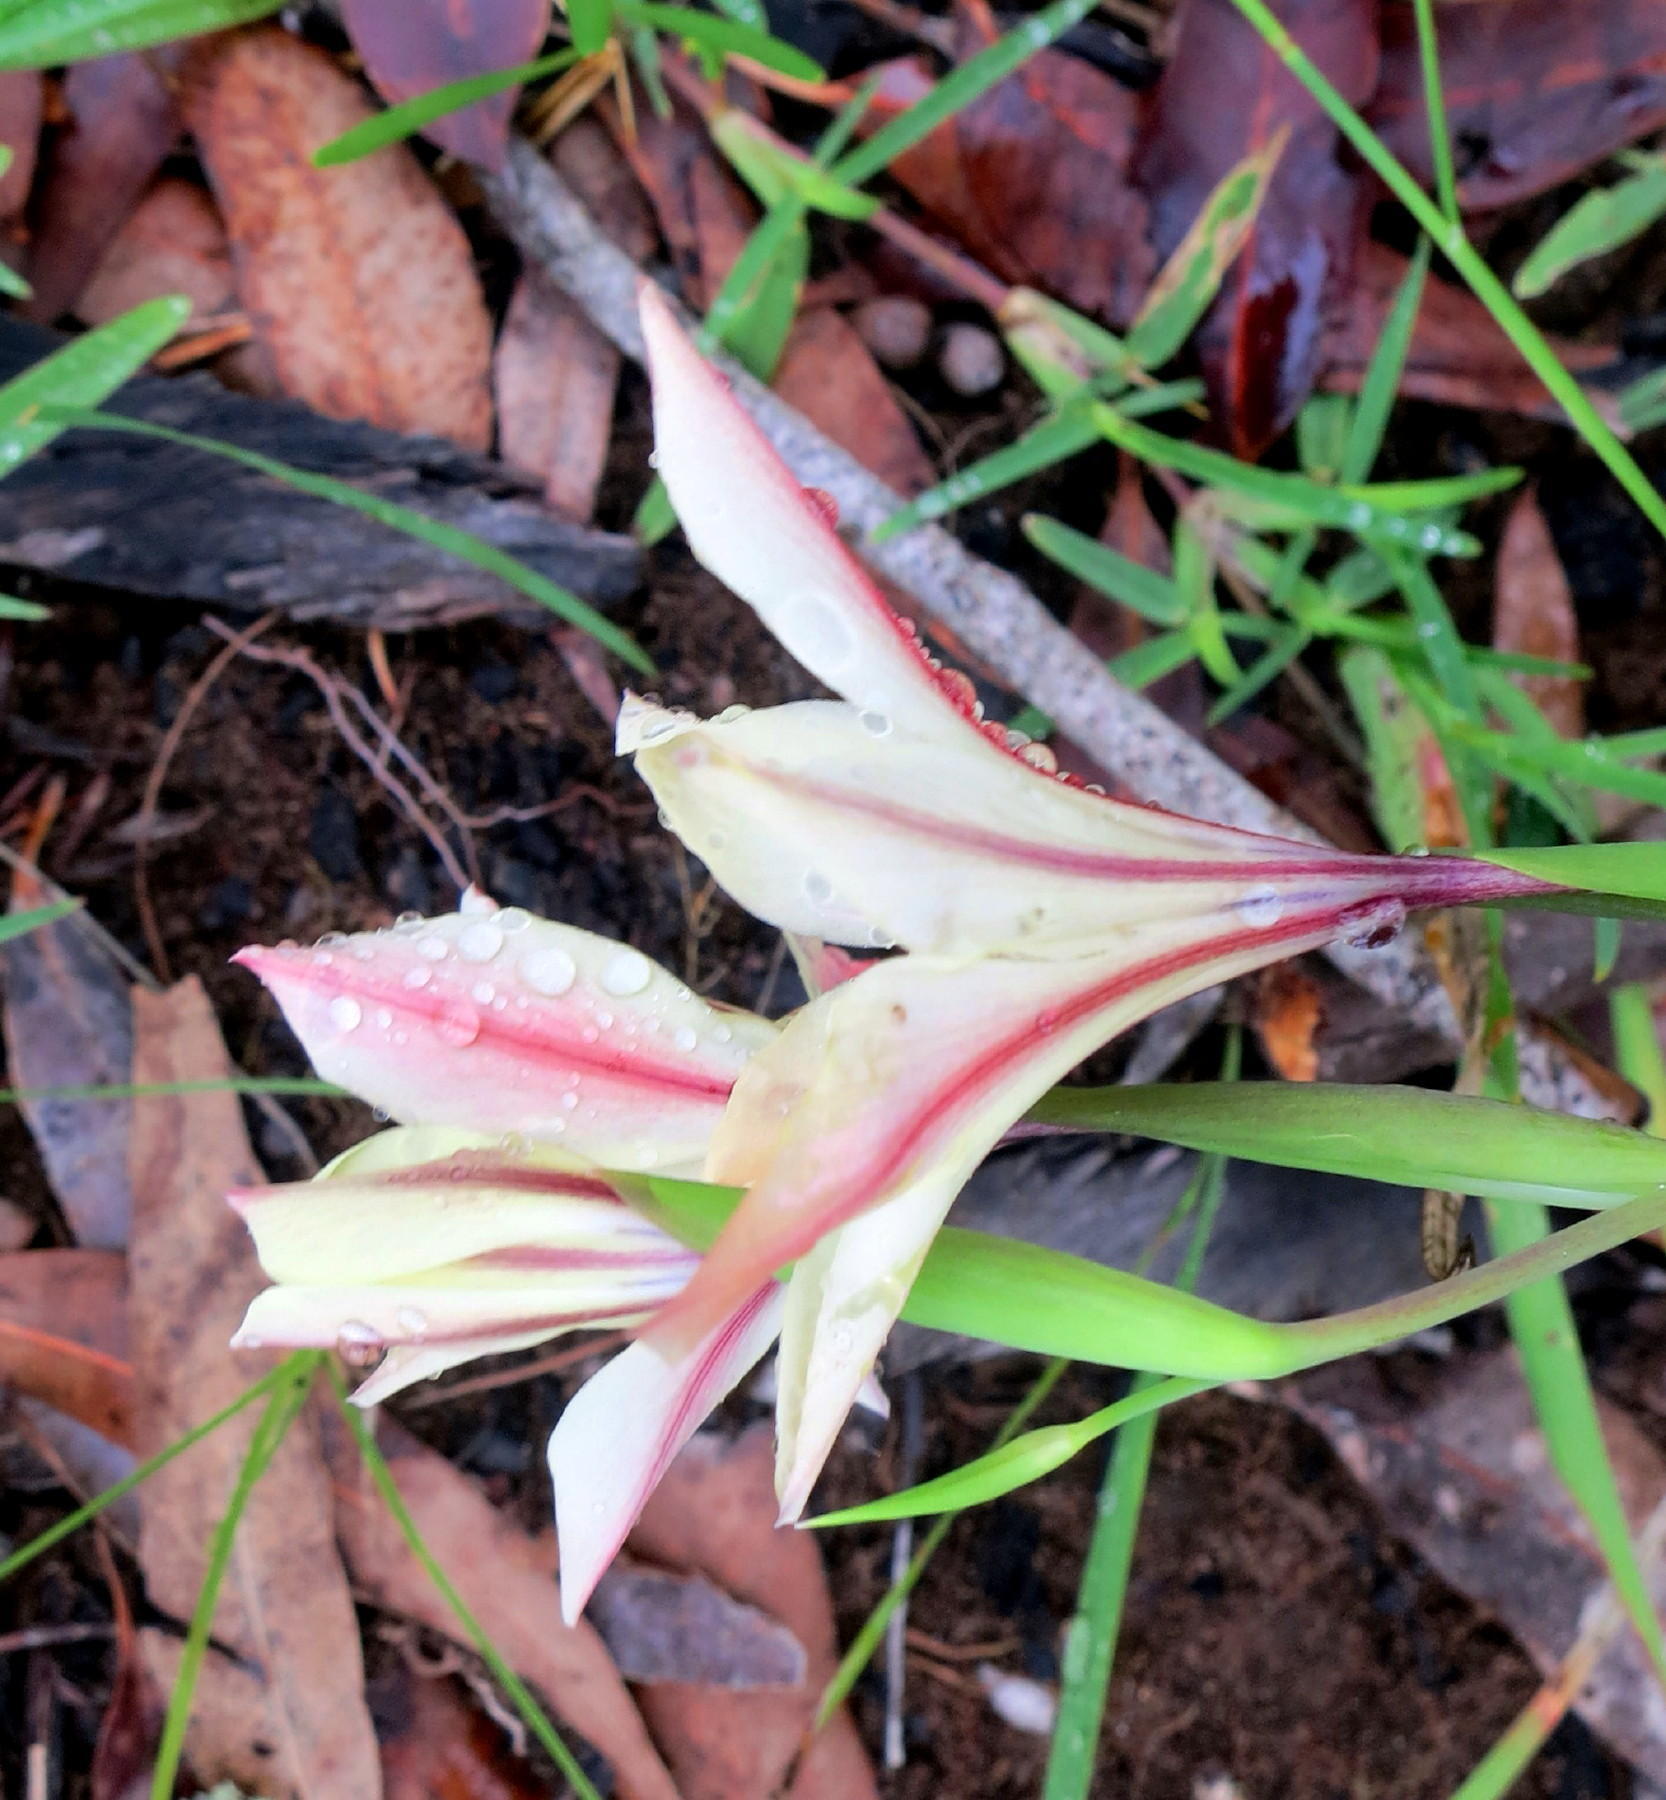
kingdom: Plantae
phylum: Tracheophyta
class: Liliopsida
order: Asparagales
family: Iridaceae
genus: Gladiolus
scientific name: Gladiolus floribundus
